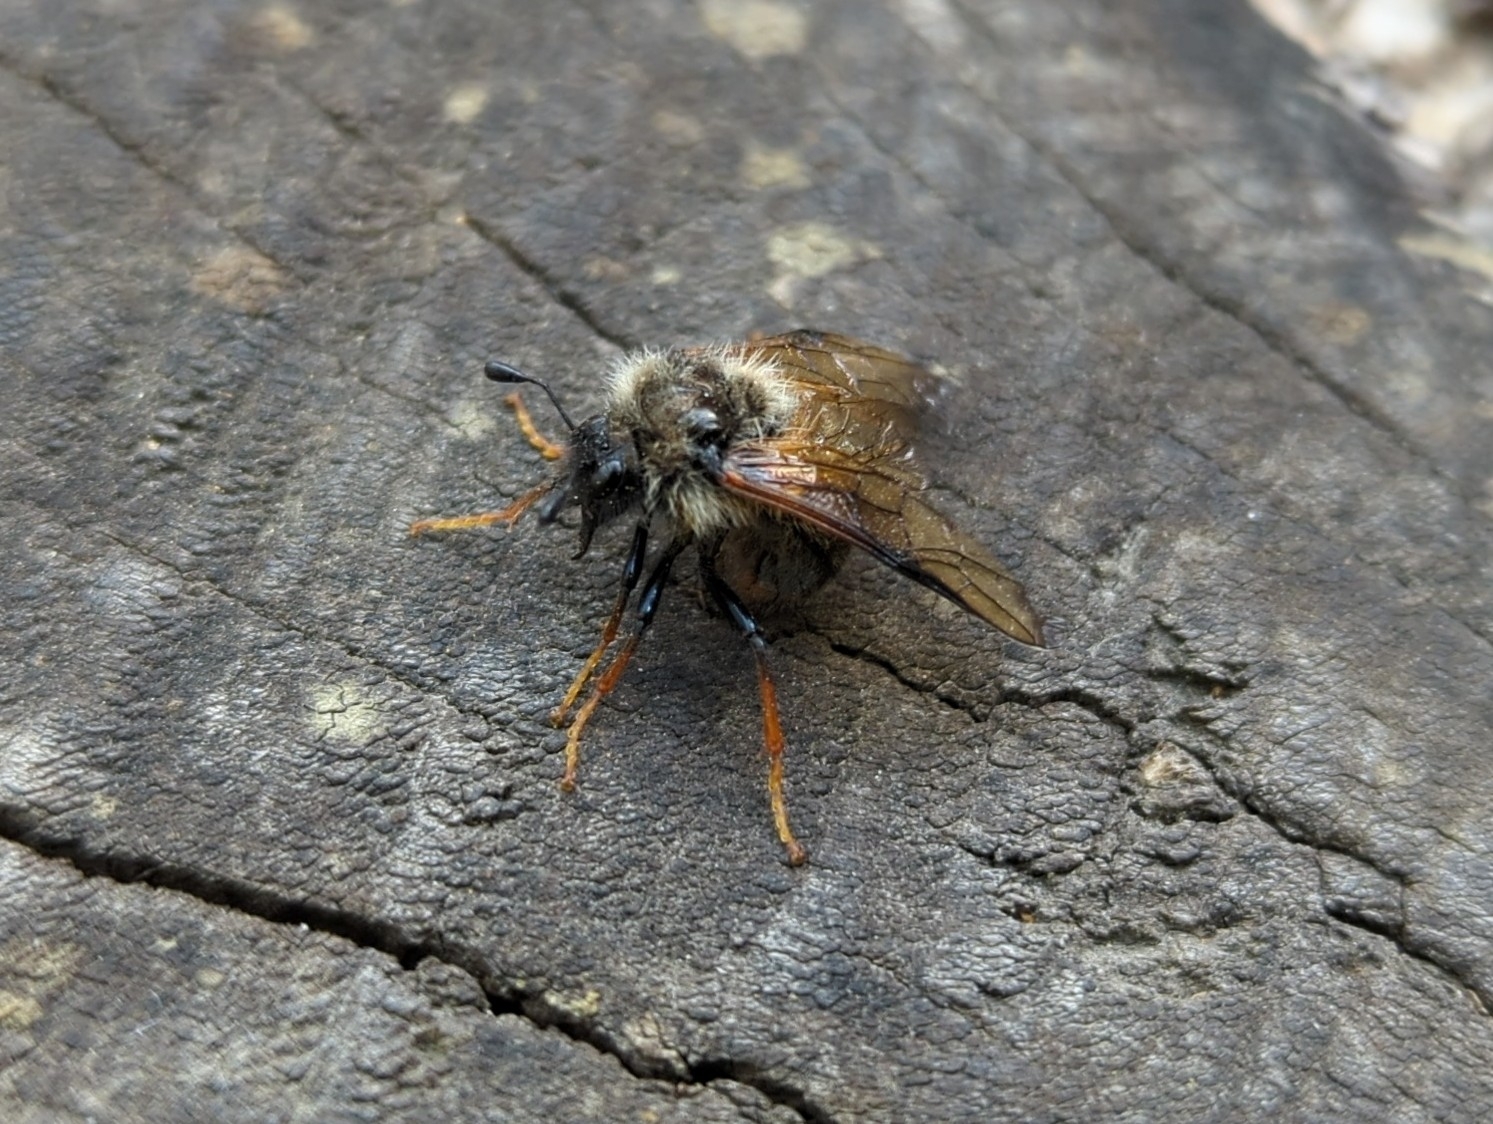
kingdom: Animalia
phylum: Arthropoda
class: Insecta
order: Hymenoptera
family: Cimbicidae
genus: Trichiosoma
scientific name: Trichiosoma triangulum
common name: Giant birch sawfly
